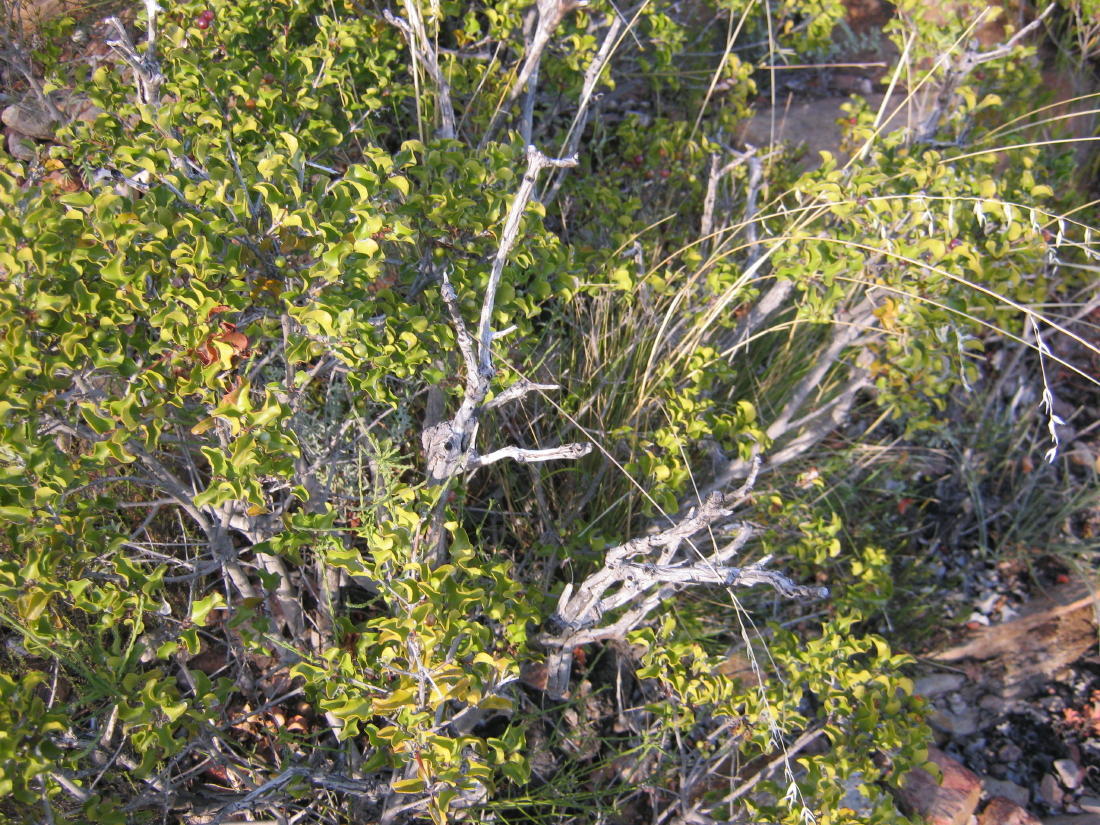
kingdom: Plantae
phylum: Tracheophyta
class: Magnoliopsida
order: Ericales
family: Ebenaceae
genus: Euclea
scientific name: Euclea undulata
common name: Small-leaved guarri
